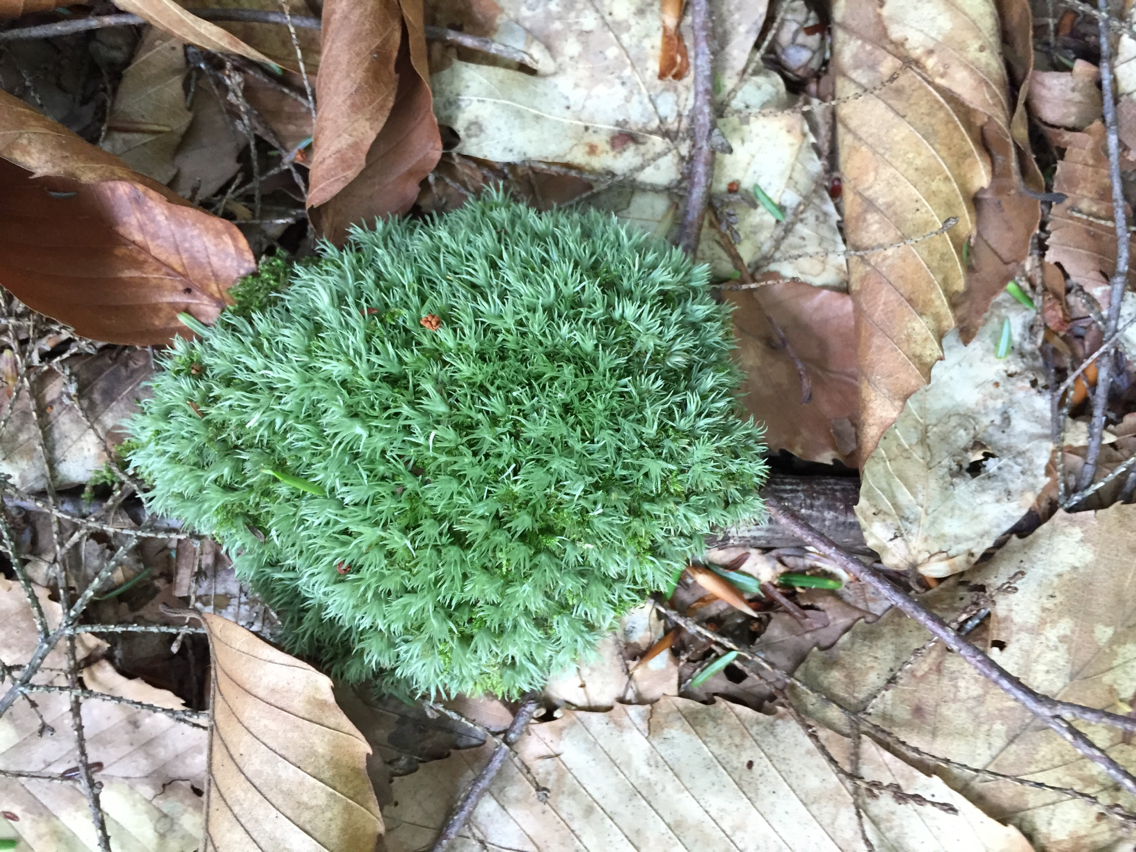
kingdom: Plantae
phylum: Bryophyta
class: Bryopsida
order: Dicranales
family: Leucobryaceae
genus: Leucobryum
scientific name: Leucobryum glaucum
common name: Large white-moss
